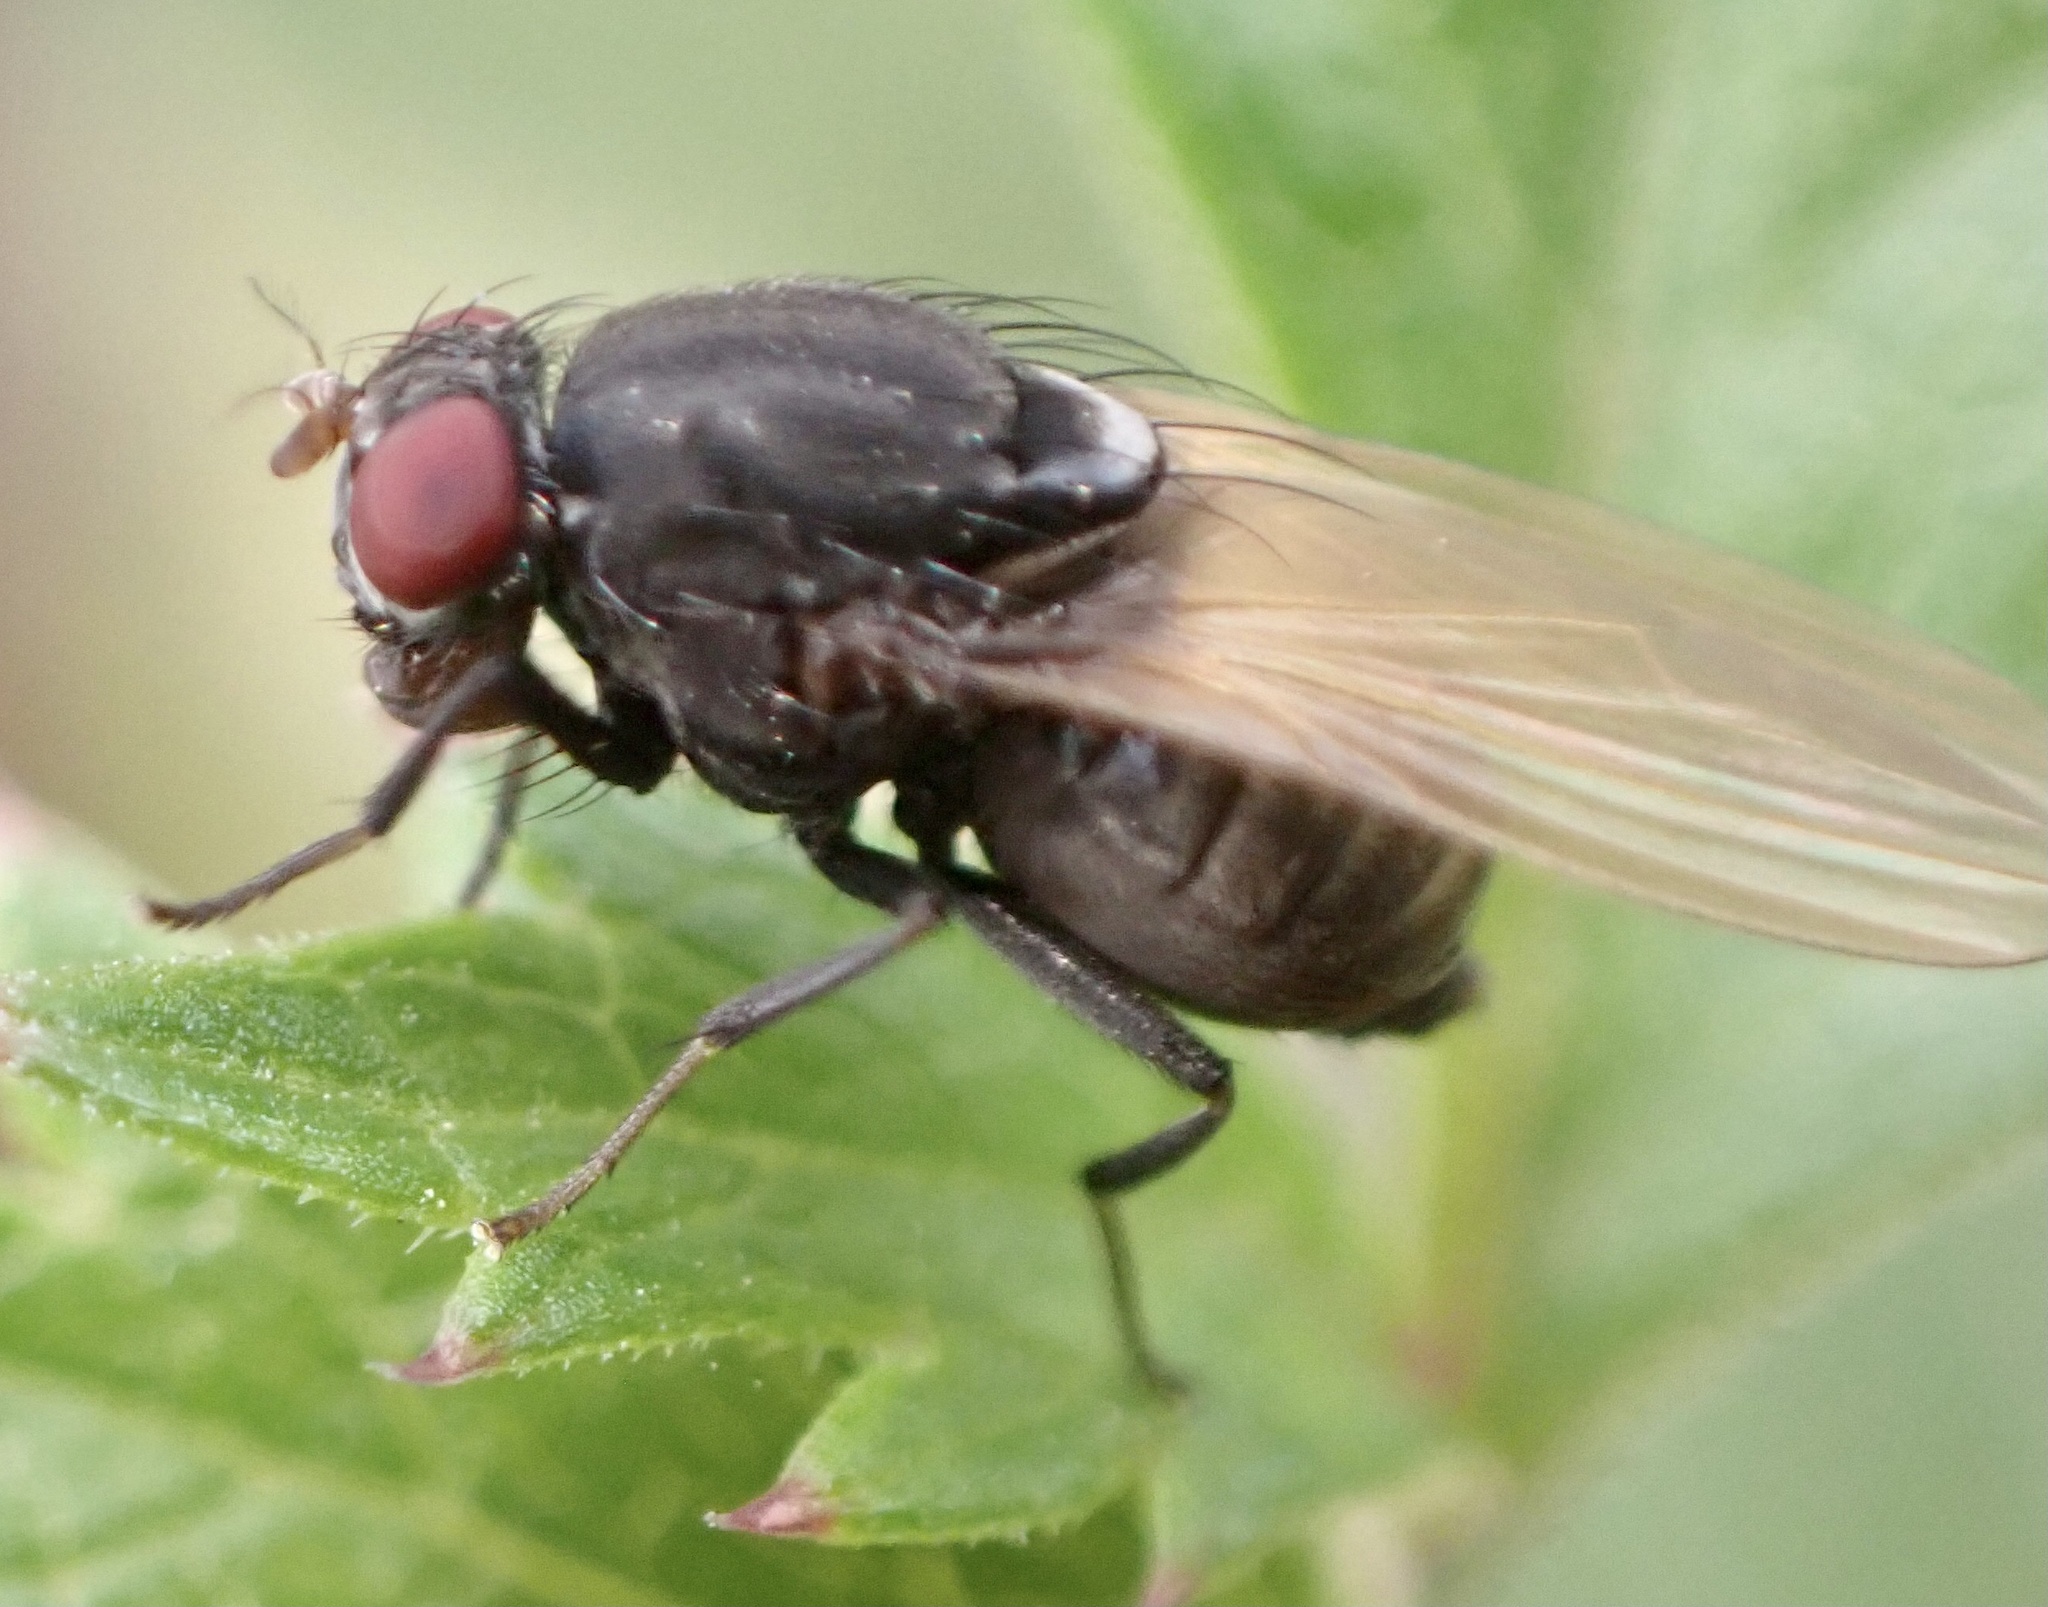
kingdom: Animalia
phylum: Arthropoda
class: Insecta
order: Diptera
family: Lauxaniidae
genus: Minettia
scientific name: Minettia longipennis
